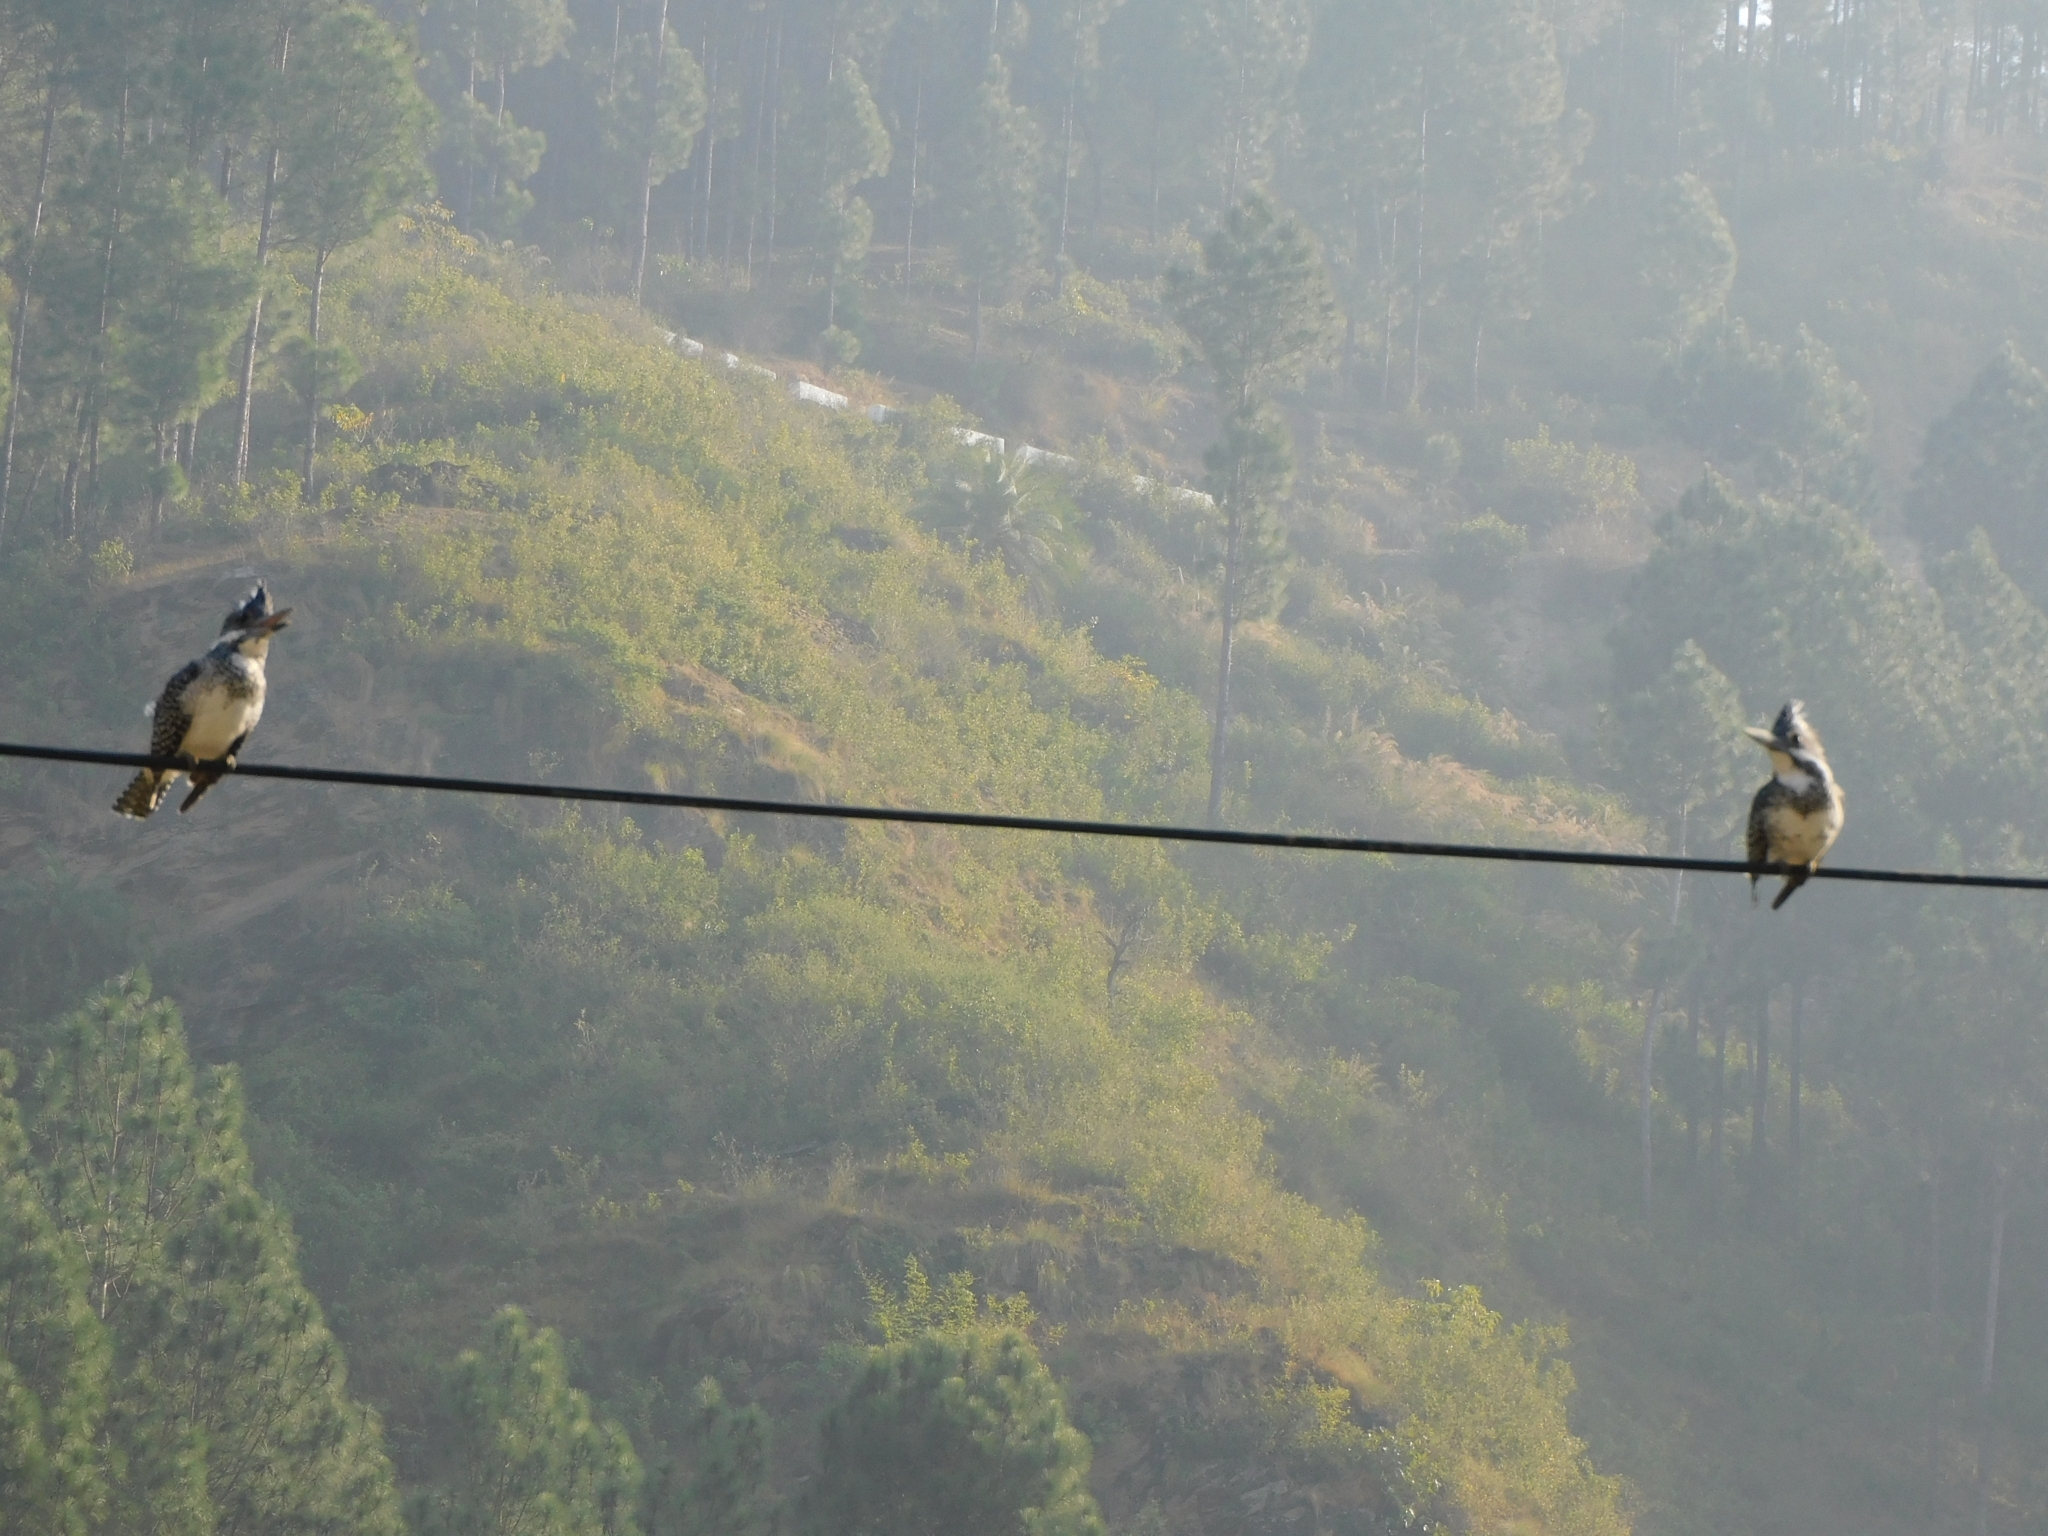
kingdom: Animalia
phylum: Chordata
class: Aves
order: Coraciiformes
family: Alcedinidae
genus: Megaceryle
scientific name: Megaceryle lugubris
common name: Crested kingfisher
